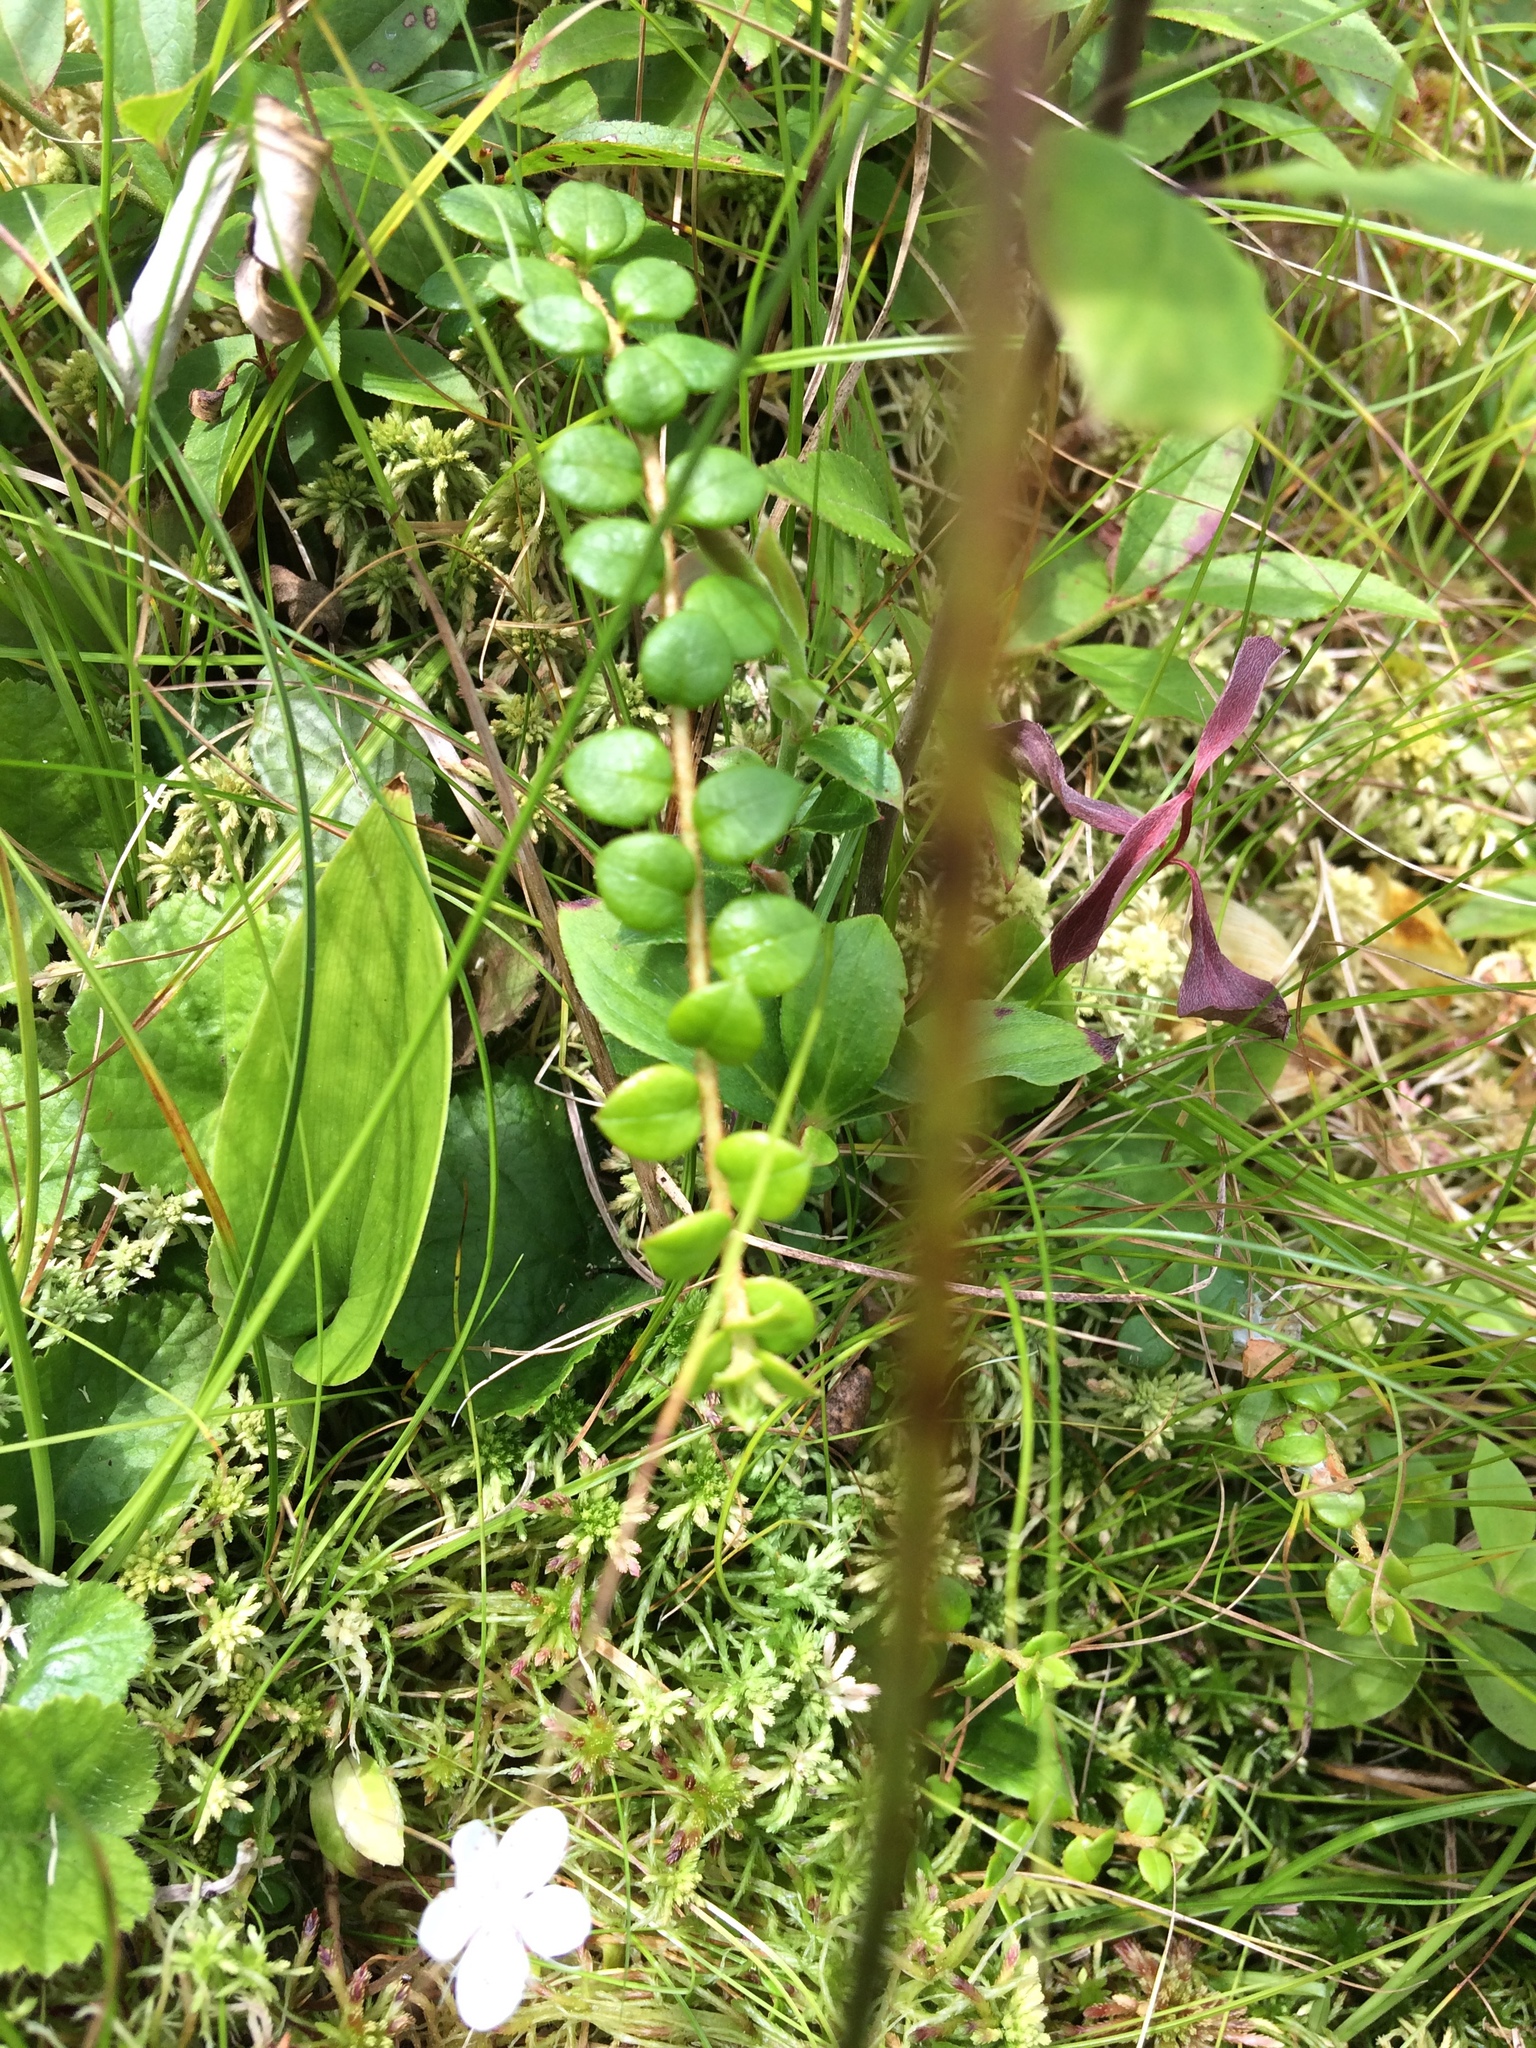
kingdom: Plantae
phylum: Tracheophyta
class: Magnoliopsida
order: Ericales
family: Ericaceae
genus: Gaultheria
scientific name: Gaultheria hispidula
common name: Cancer wintergreen
